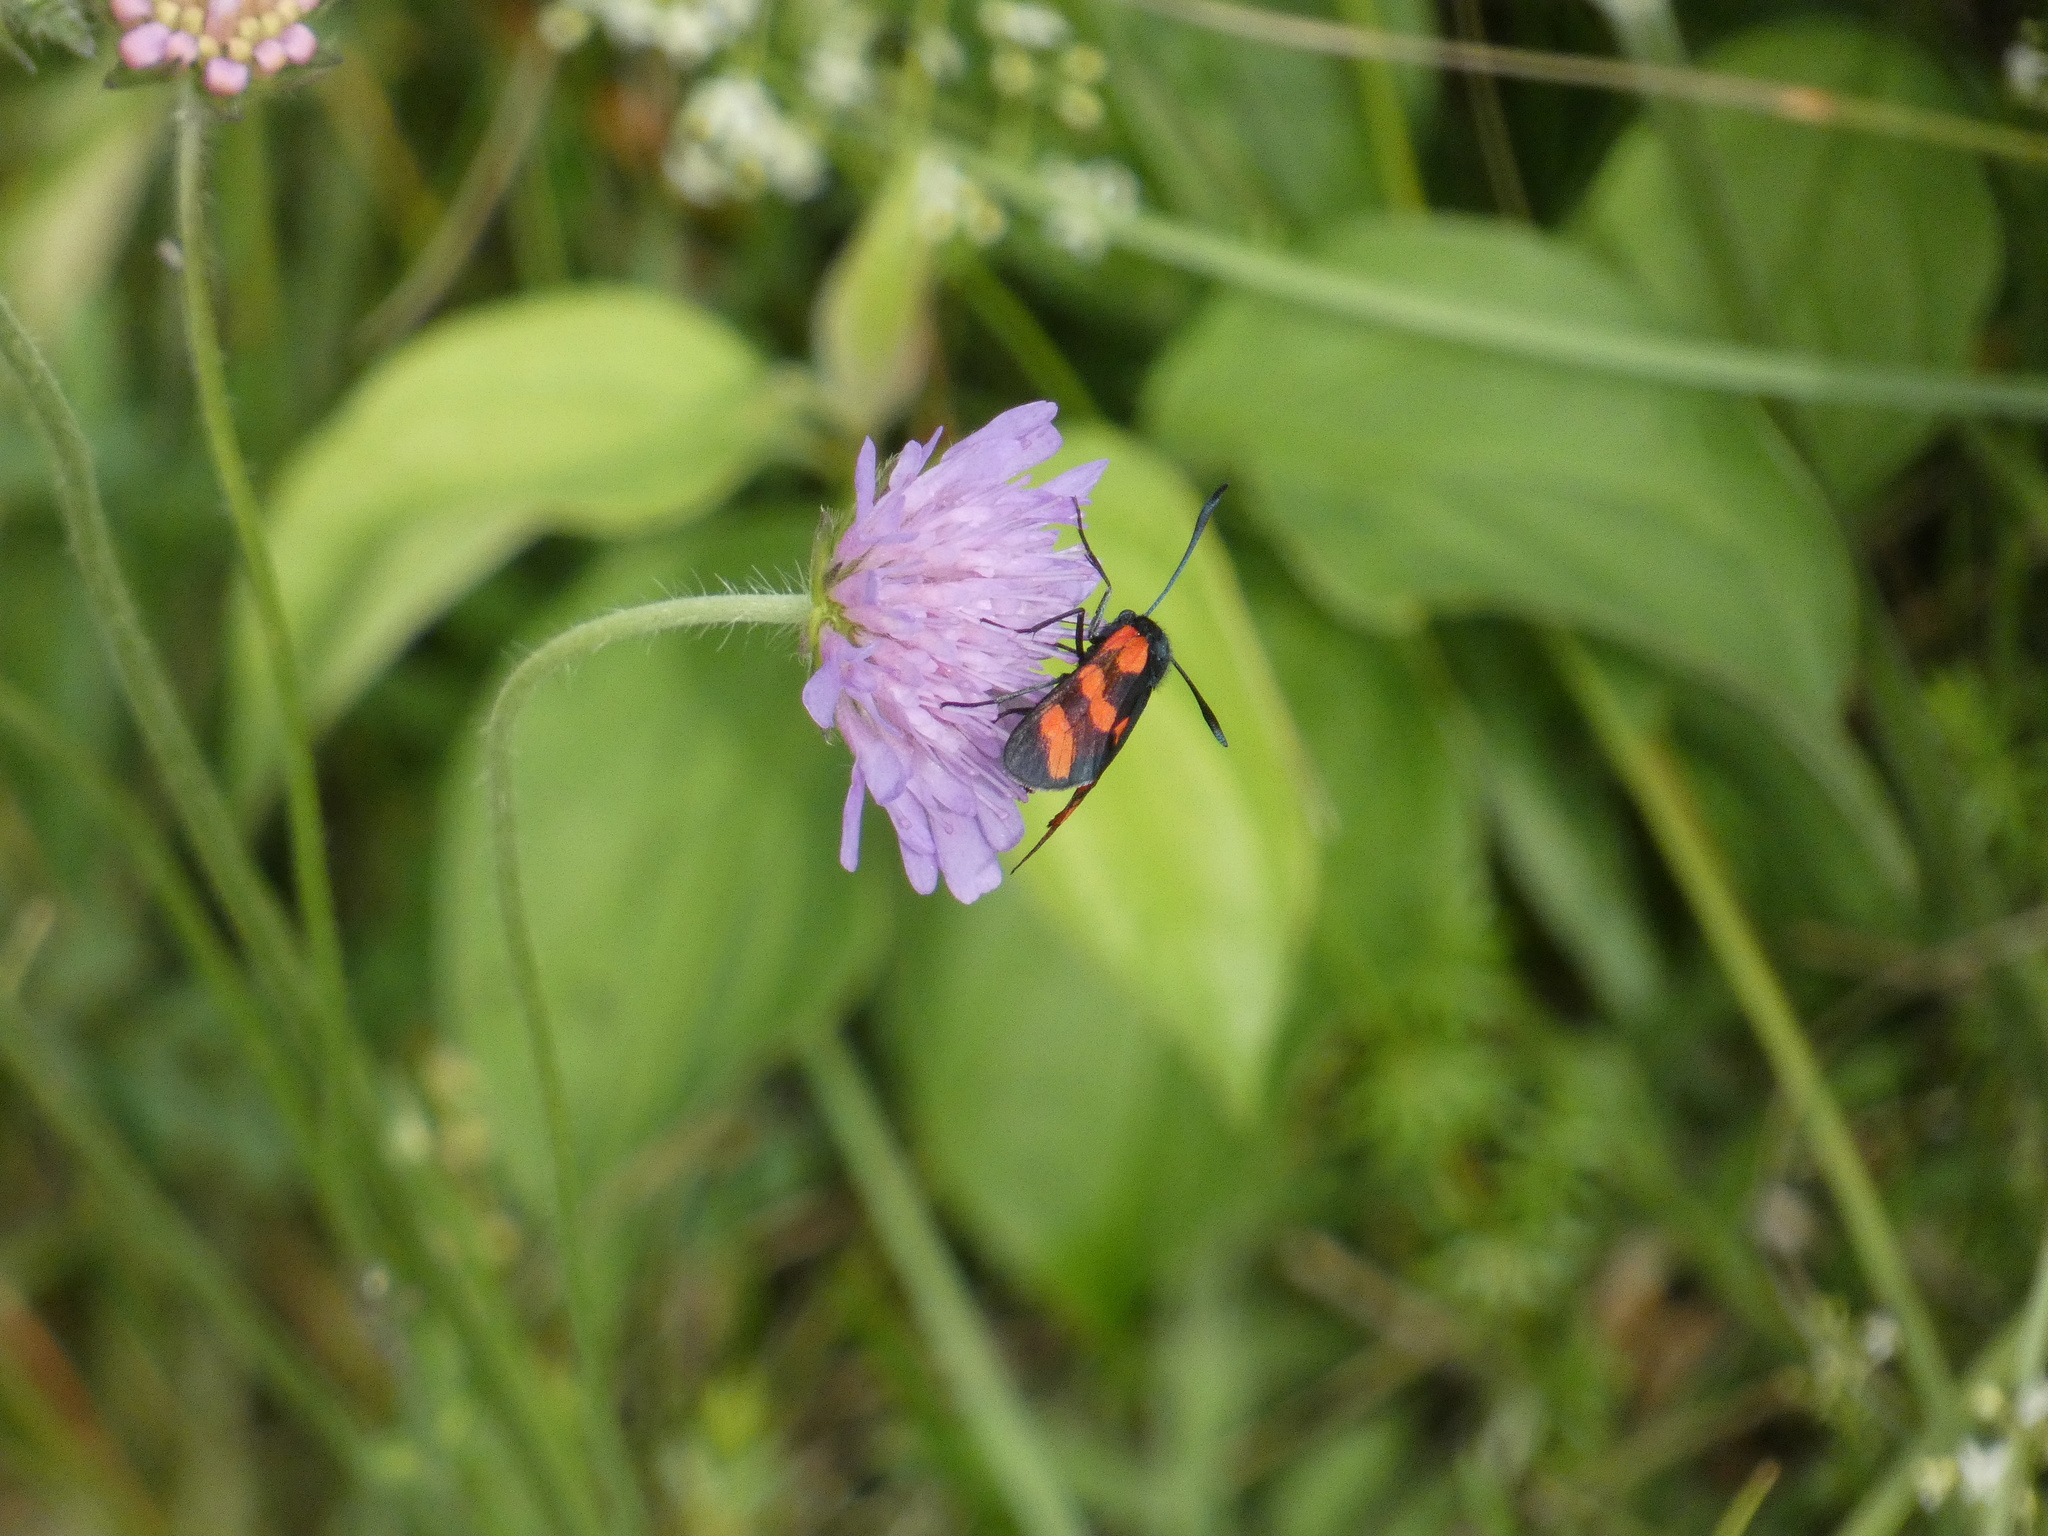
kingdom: Animalia
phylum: Arthropoda
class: Insecta
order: Lepidoptera
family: Zygaenidae
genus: Zygaena
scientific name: Zygaena filipendulae
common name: Six-spot burnet
